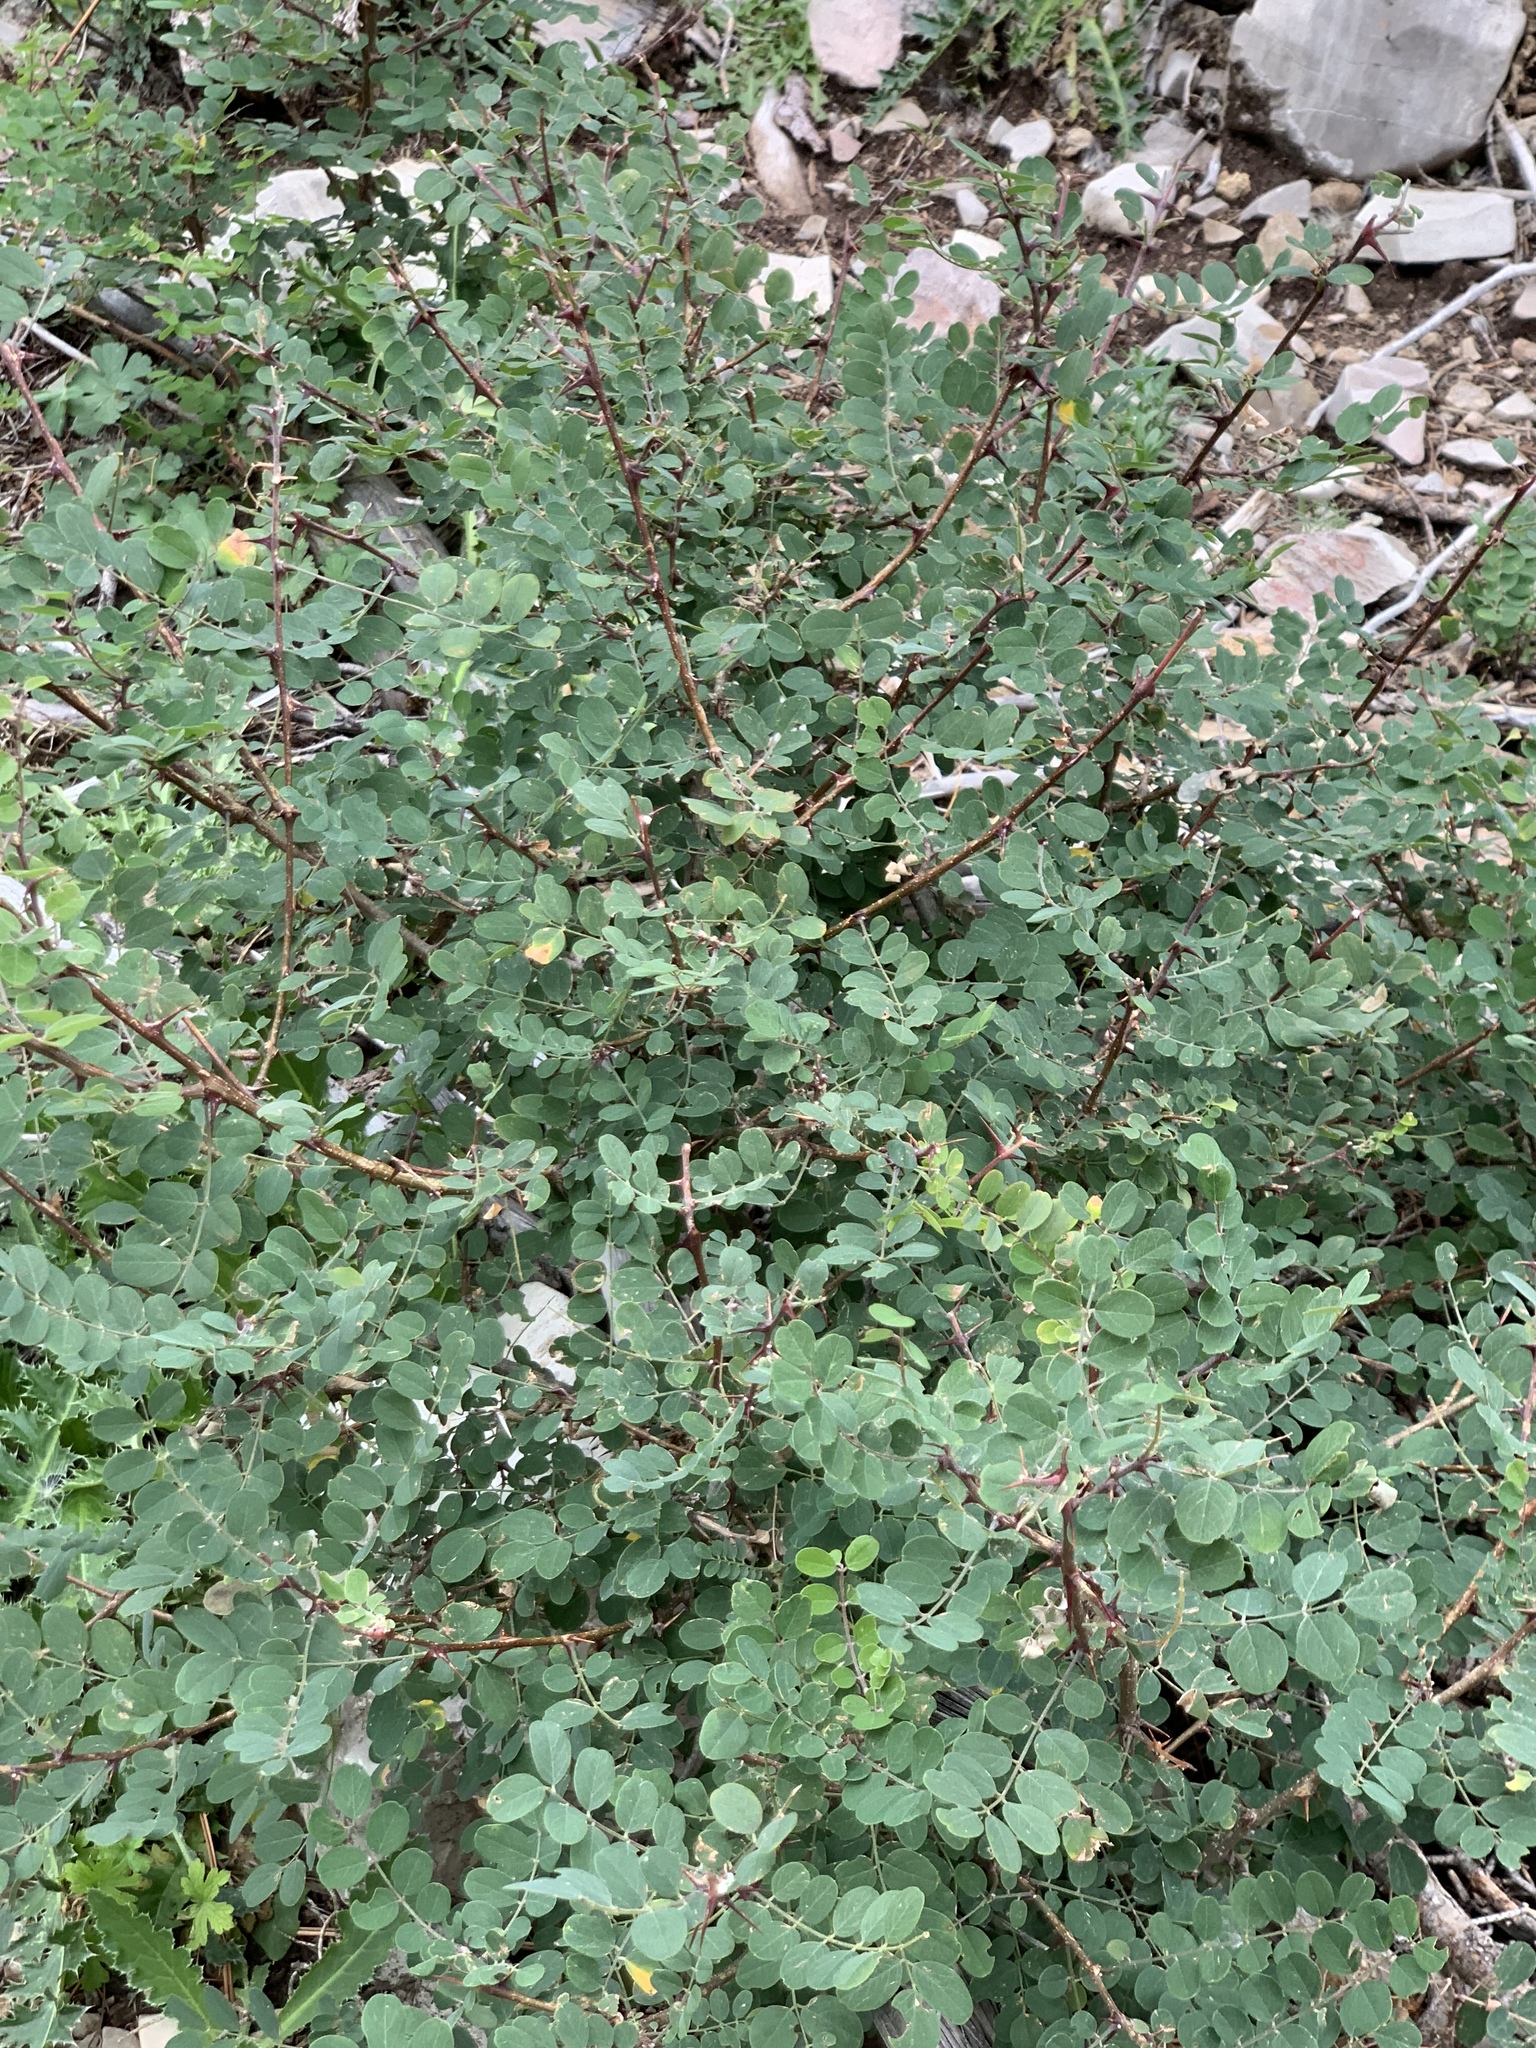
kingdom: Plantae
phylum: Tracheophyta
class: Magnoliopsida
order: Fabales
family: Fabaceae
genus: Robinia
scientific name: Robinia neomexicana
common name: New mexico locust
